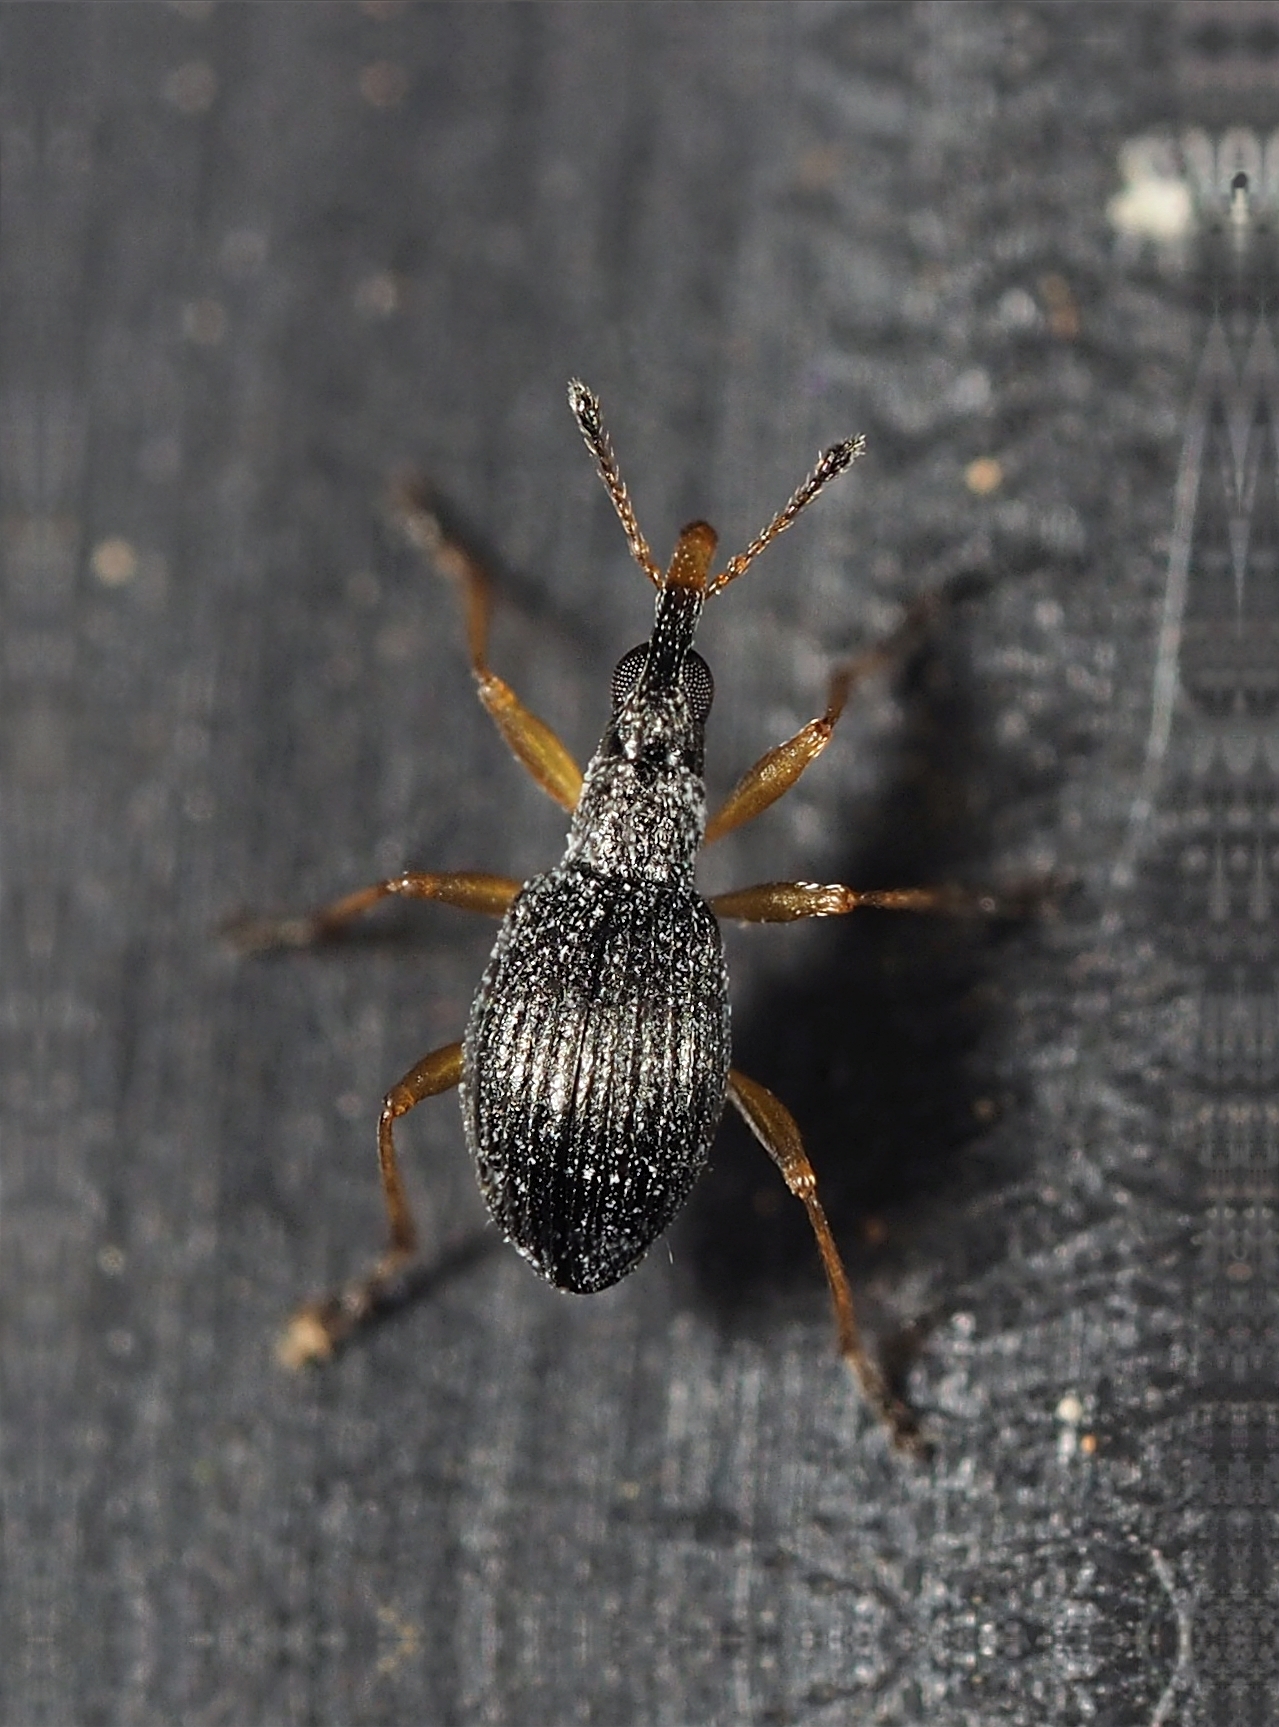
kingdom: Animalia
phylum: Arthropoda
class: Insecta
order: Coleoptera
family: Apionidae
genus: Protapion
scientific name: Protapion nigritarse
